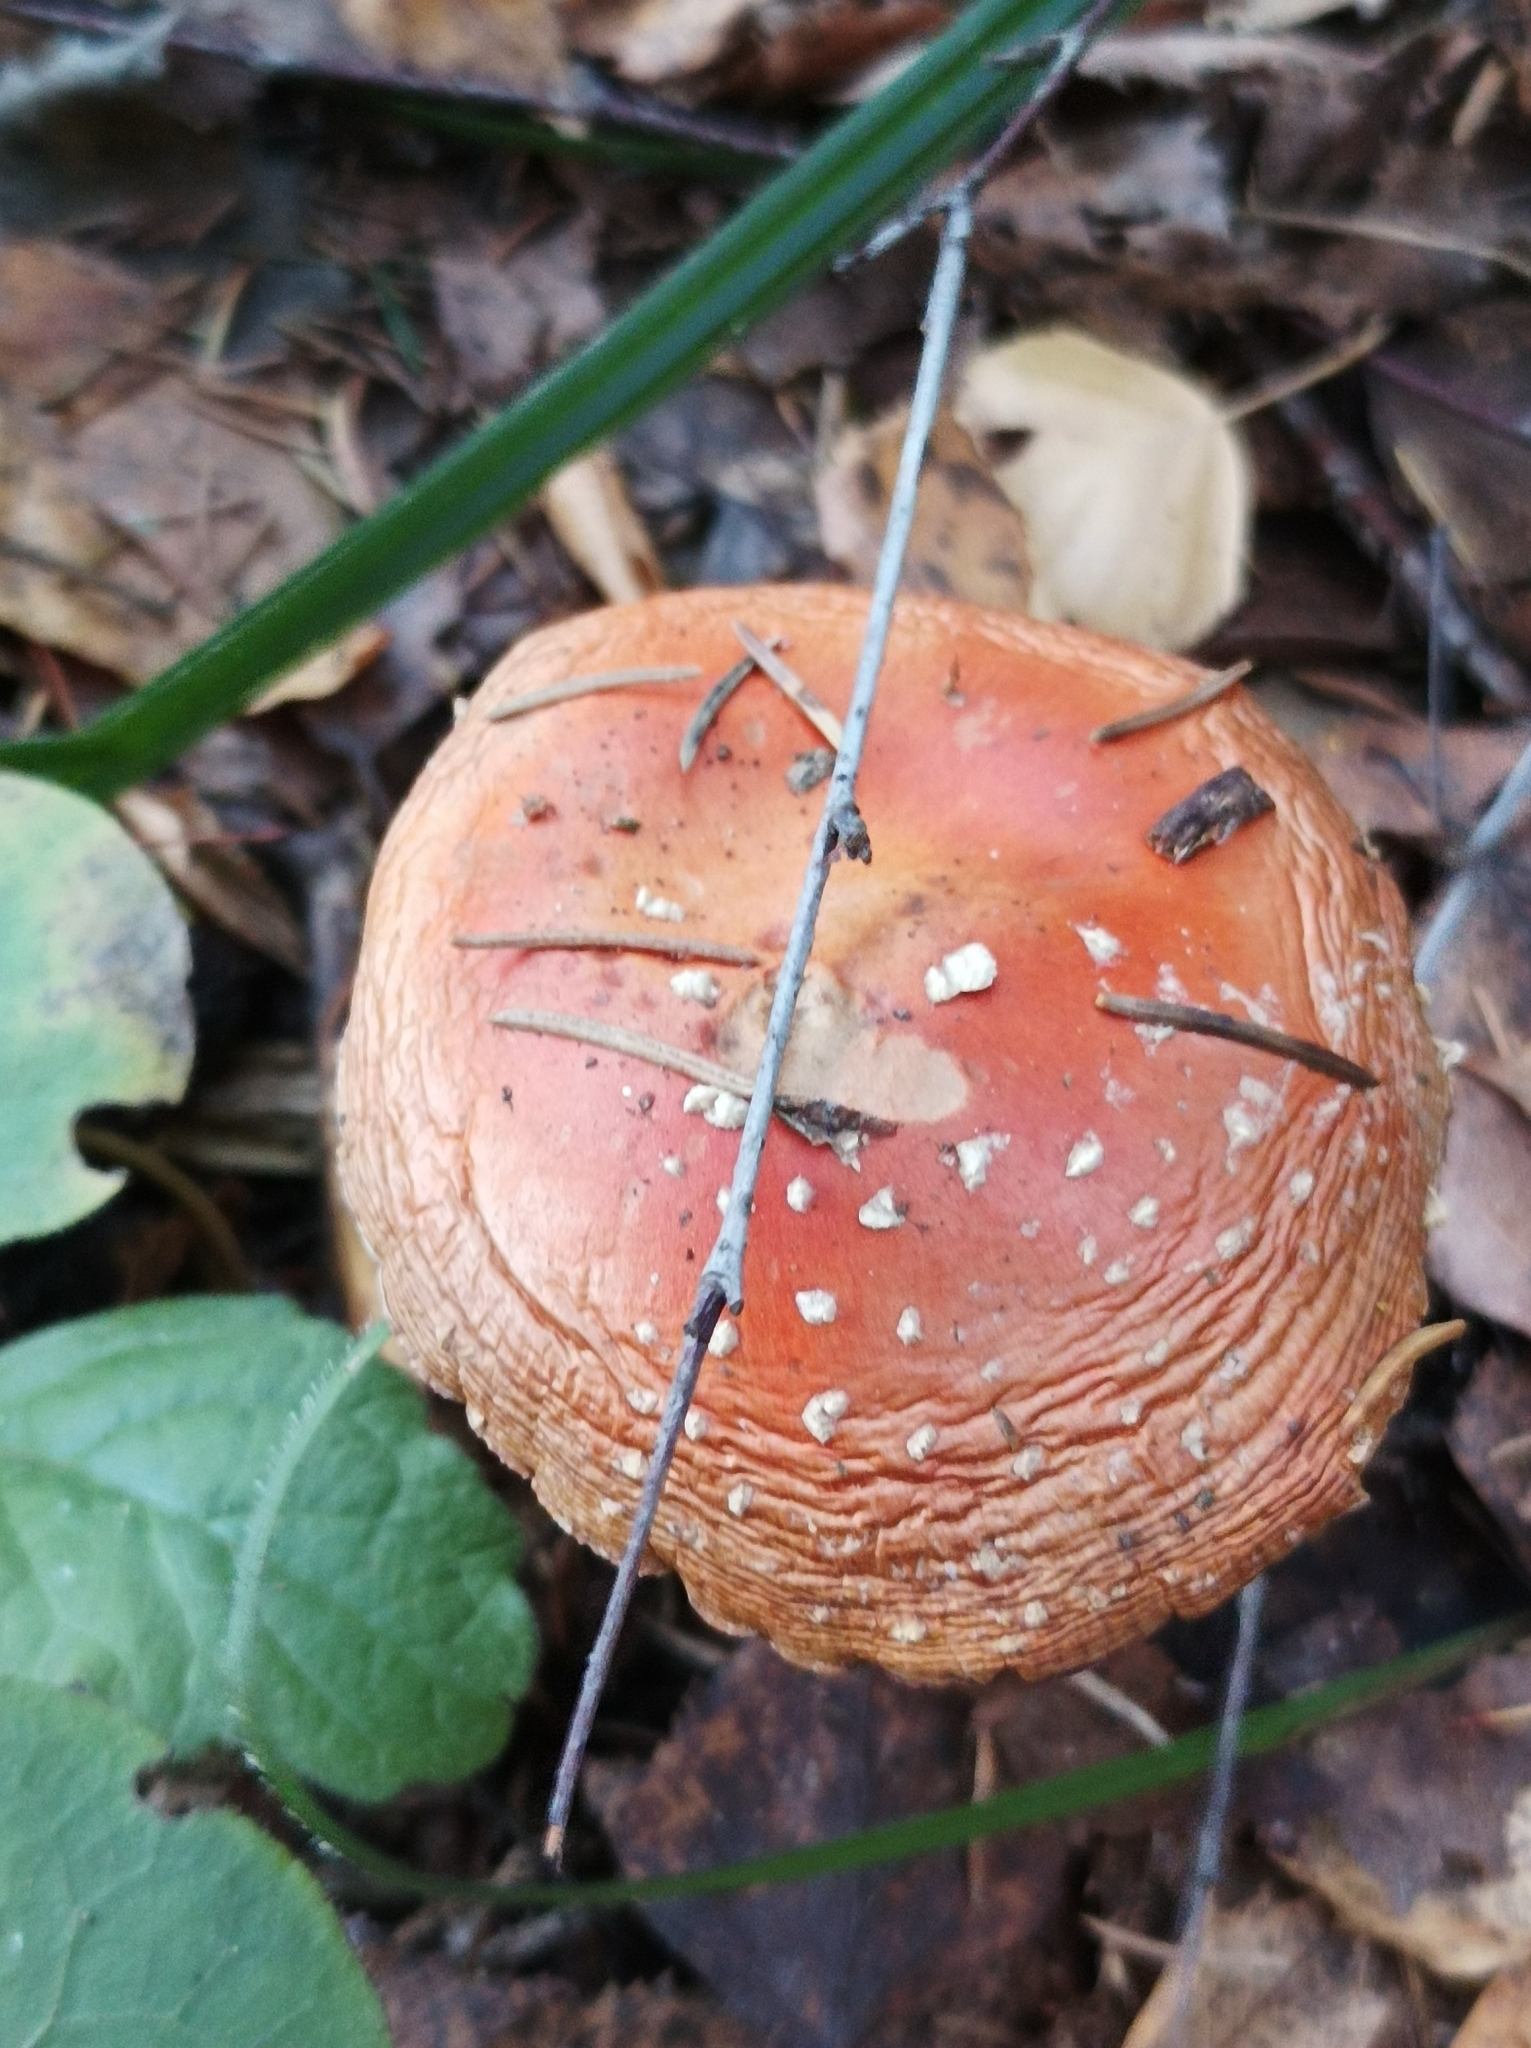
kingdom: Fungi
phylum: Basidiomycota
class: Agaricomycetes
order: Agaricales
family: Amanitaceae
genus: Amanita
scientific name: Amanita muscaria
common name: Fly agaric
